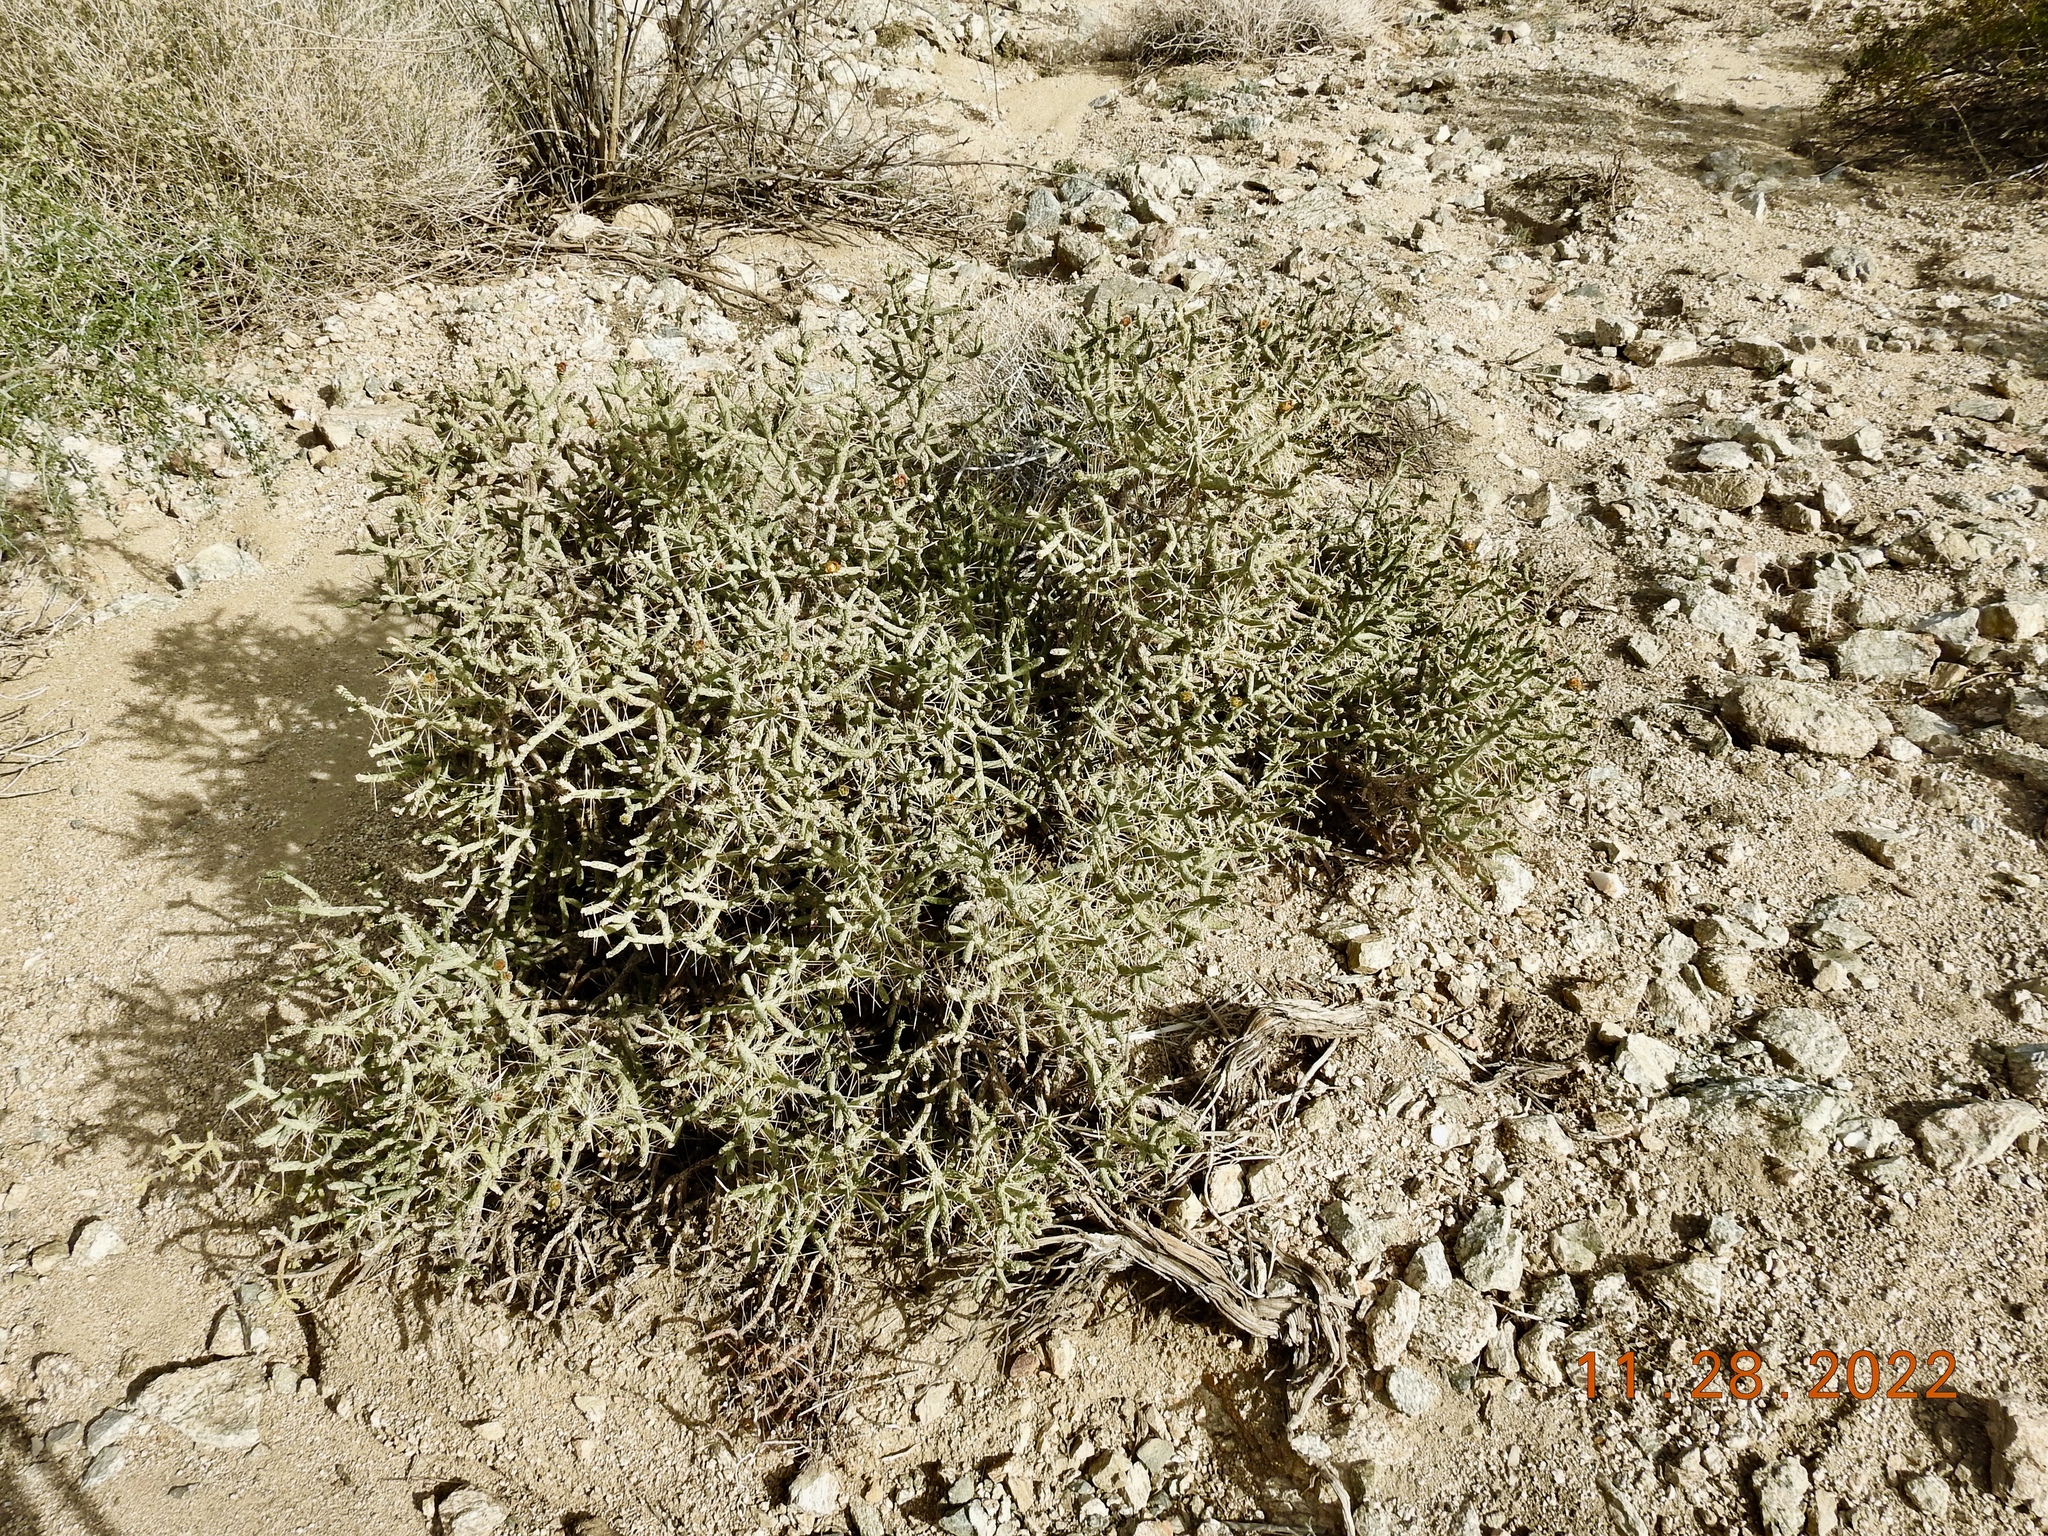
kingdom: Plantae
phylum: Tracheophyta
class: Magnoliopsida
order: Caryophyllales
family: Cactaceae
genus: Cylindropuntia
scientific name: Cylindropuntia ramosissima
